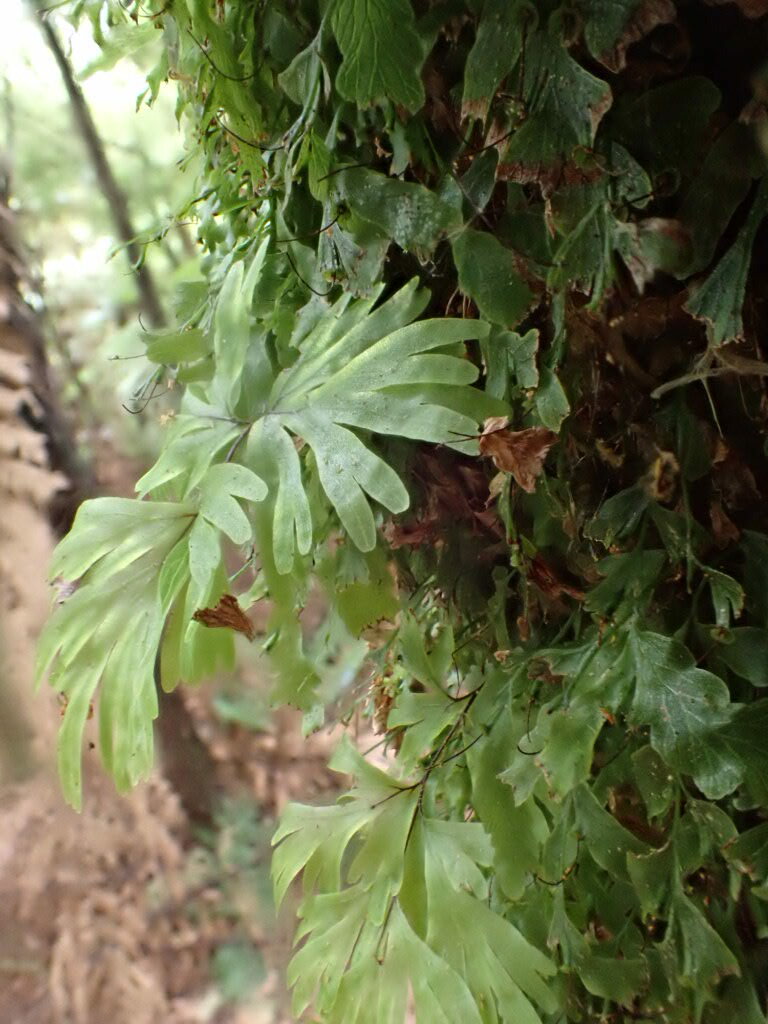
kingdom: Plantae
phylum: Tracheophyta
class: Polypodiopsida
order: Hymenophyllales
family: Hymenophyllaceae
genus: Hymenophyllum
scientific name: Hymenophyllum flabellatum
